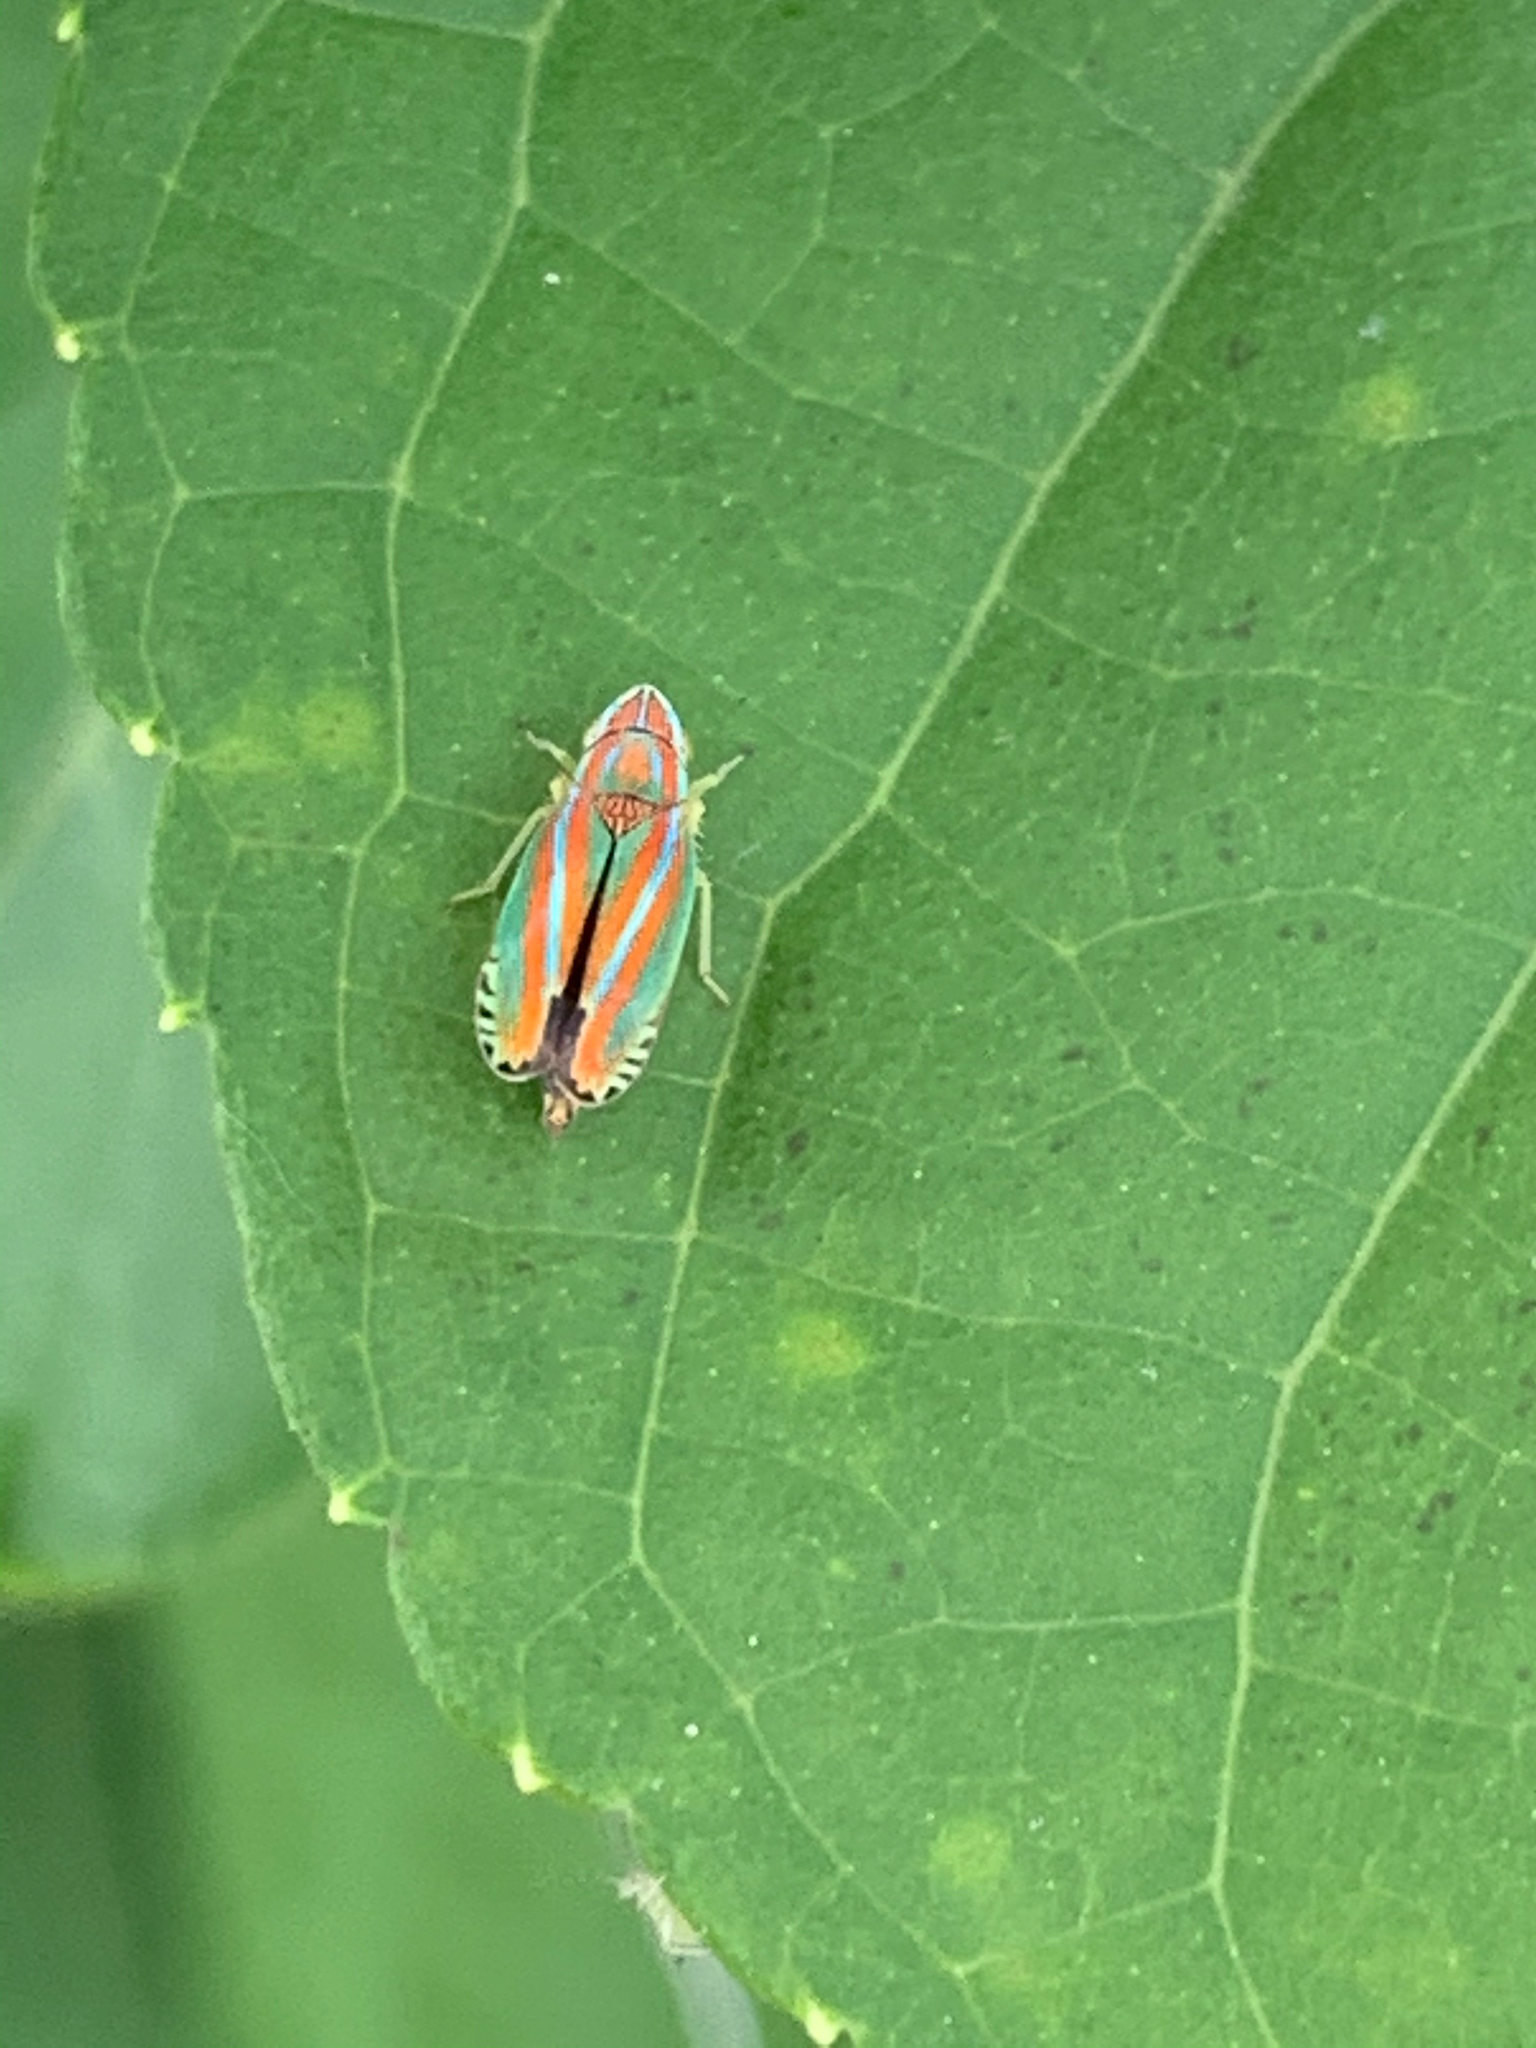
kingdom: Animalia
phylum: Arthropoda
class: Insecta
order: Hemiptera
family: Cicadellidae
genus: Graphocephala
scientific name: Graphocephala versuta
